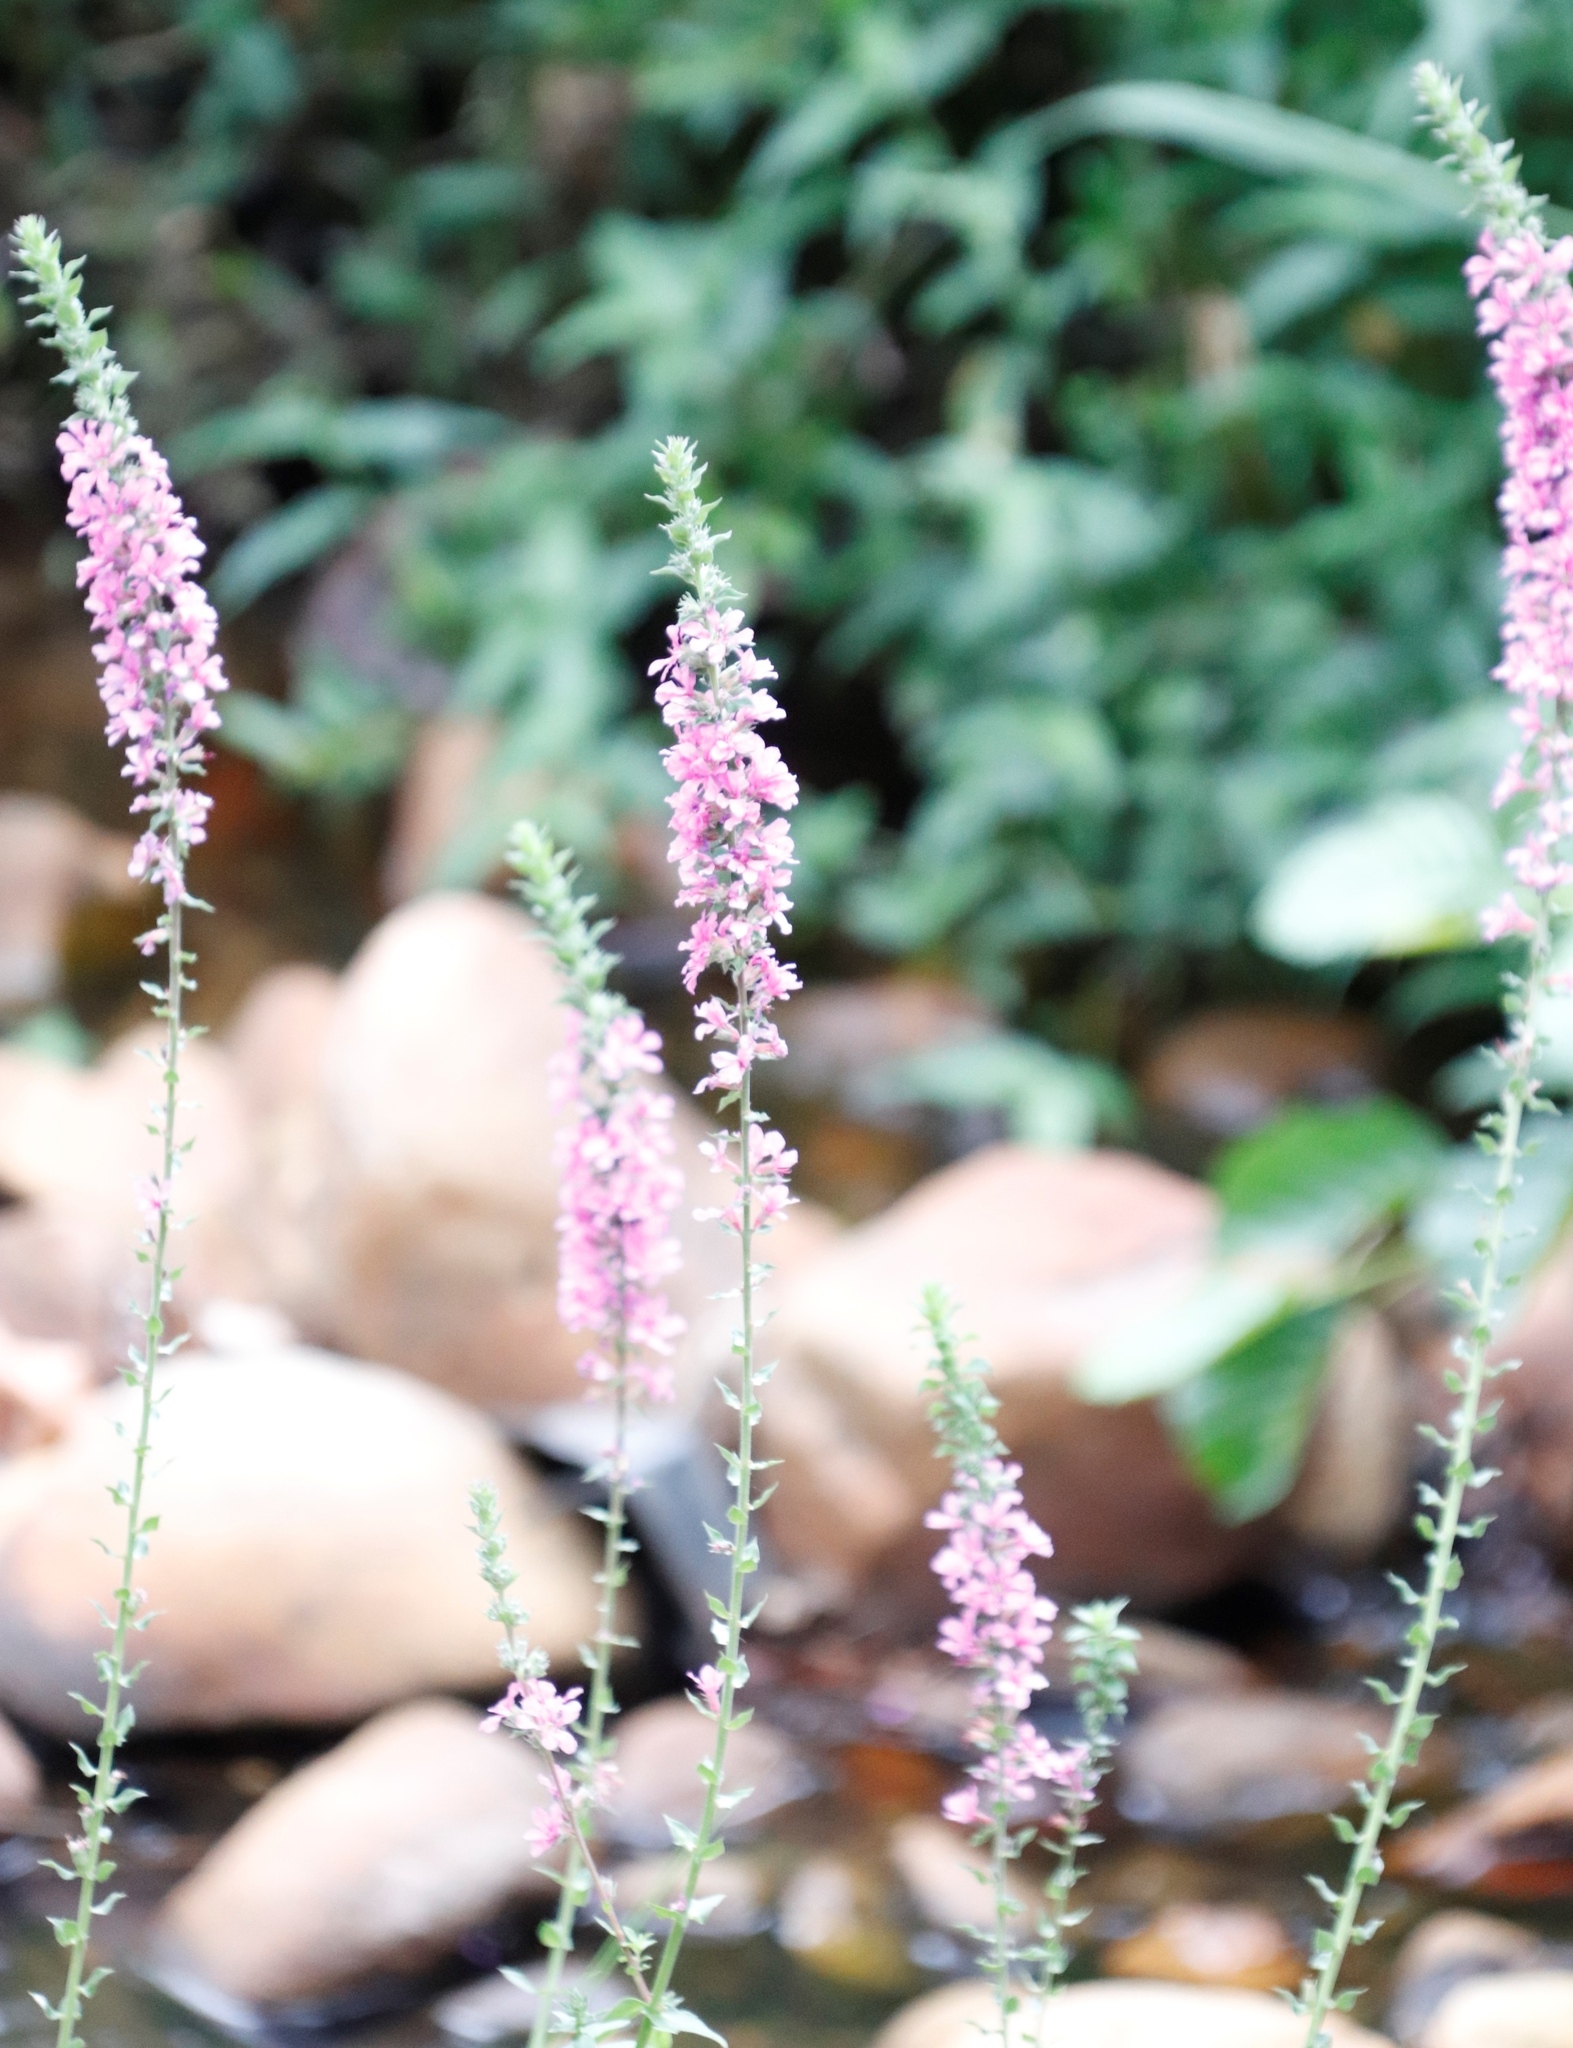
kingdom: Plantae
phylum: Tracheophyta
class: Magnoliopsida
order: Myrtales
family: Lythraceae
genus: Lythrum
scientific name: Lythrum salicaria
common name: Purple loosestrife
